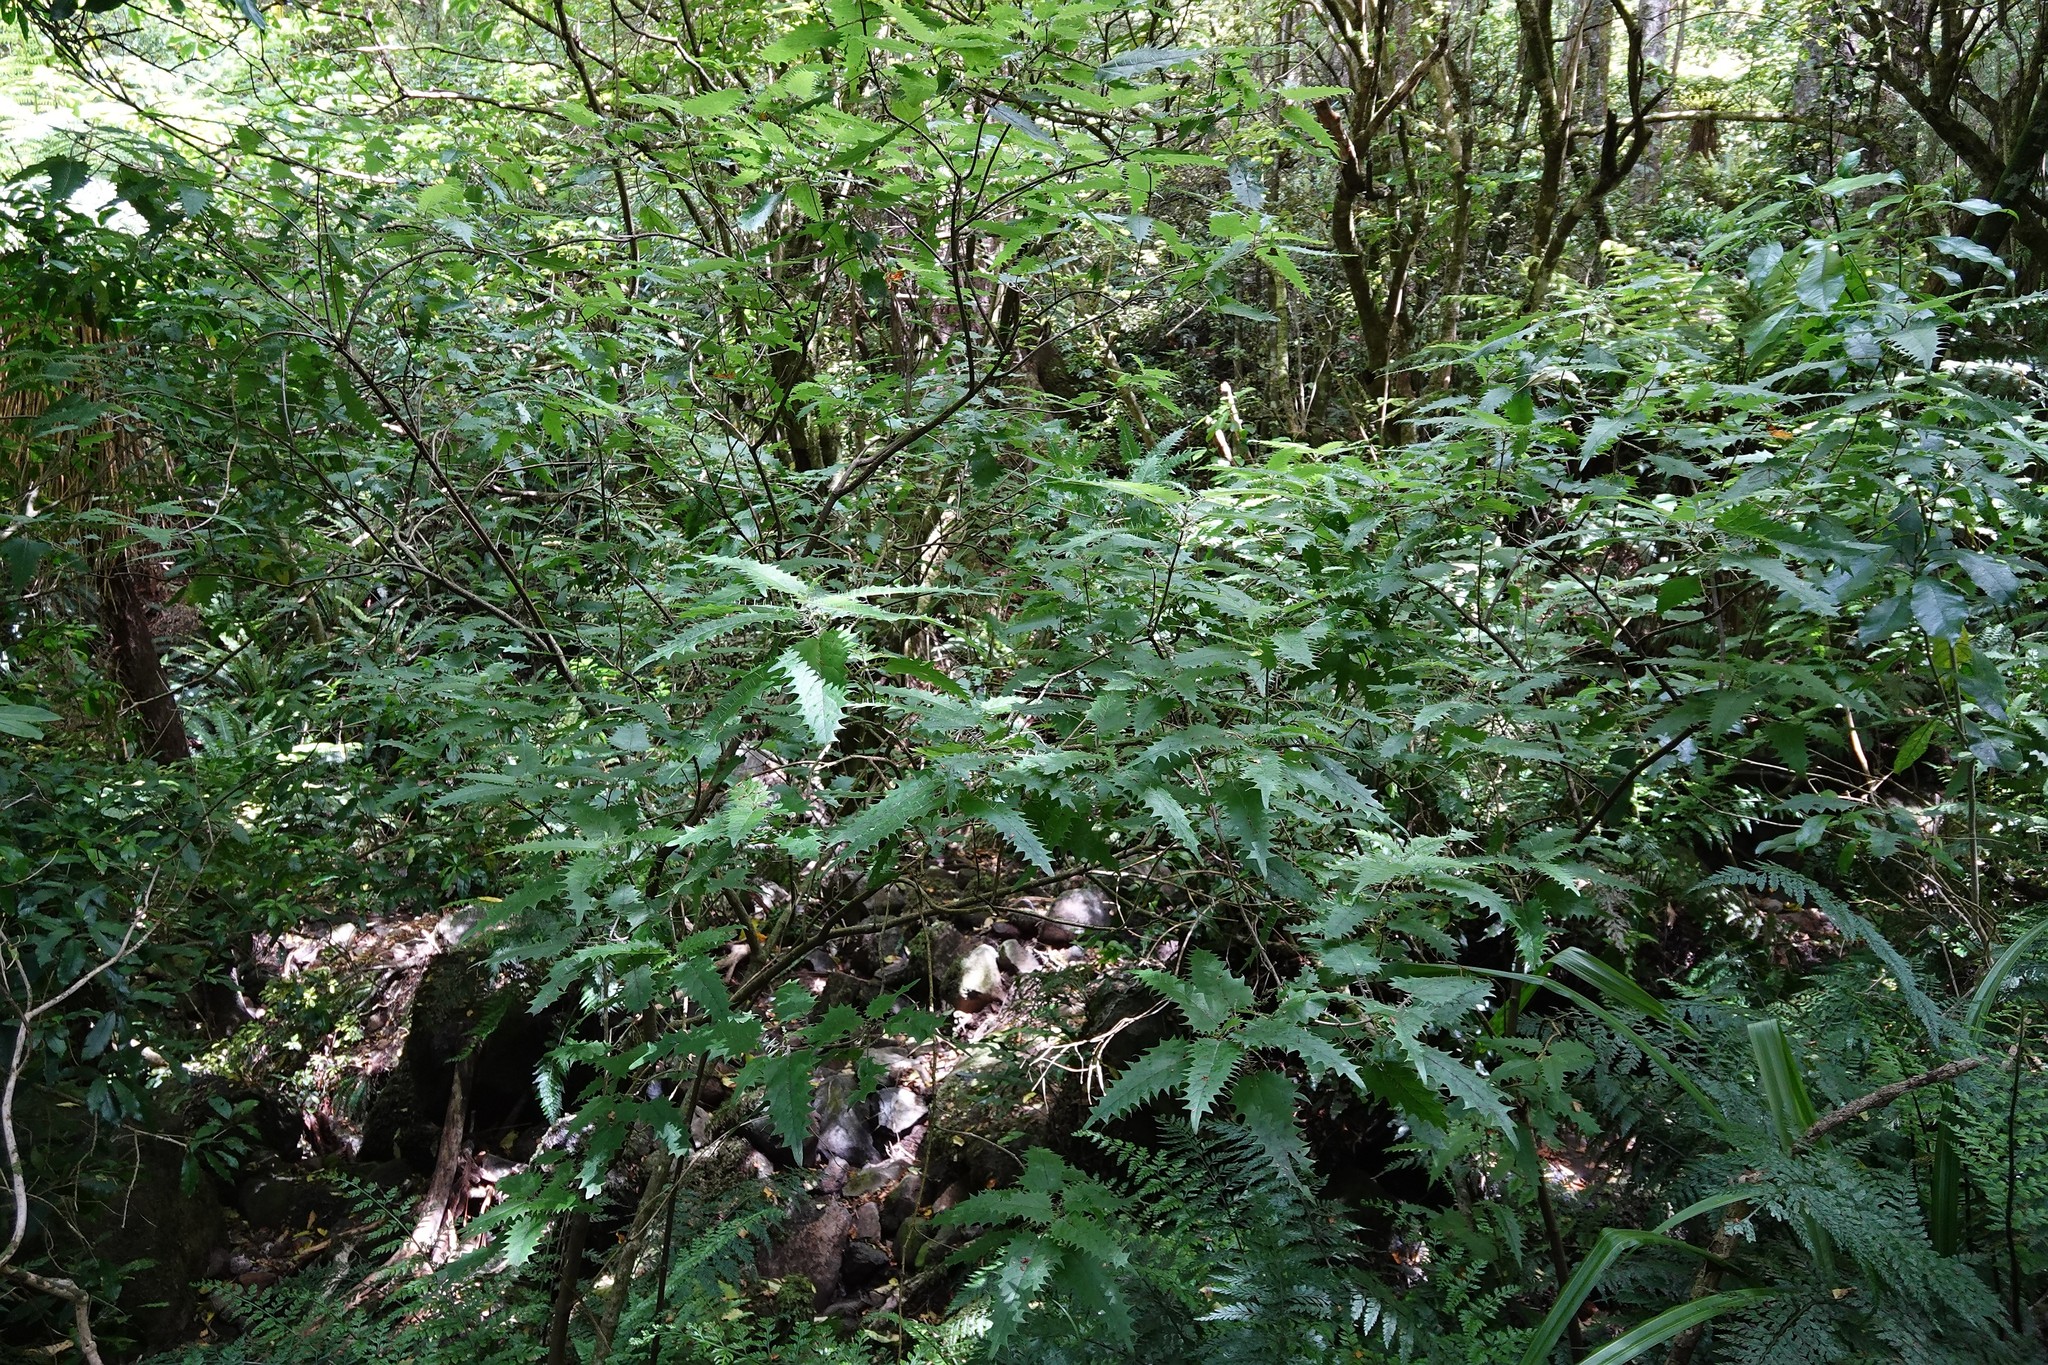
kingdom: Plantae
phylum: Tracheophyta
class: Magnoliopsida
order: Rosales
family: Urticaceae
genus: Urtica
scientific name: Urtica ferox
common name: Tree nettle
